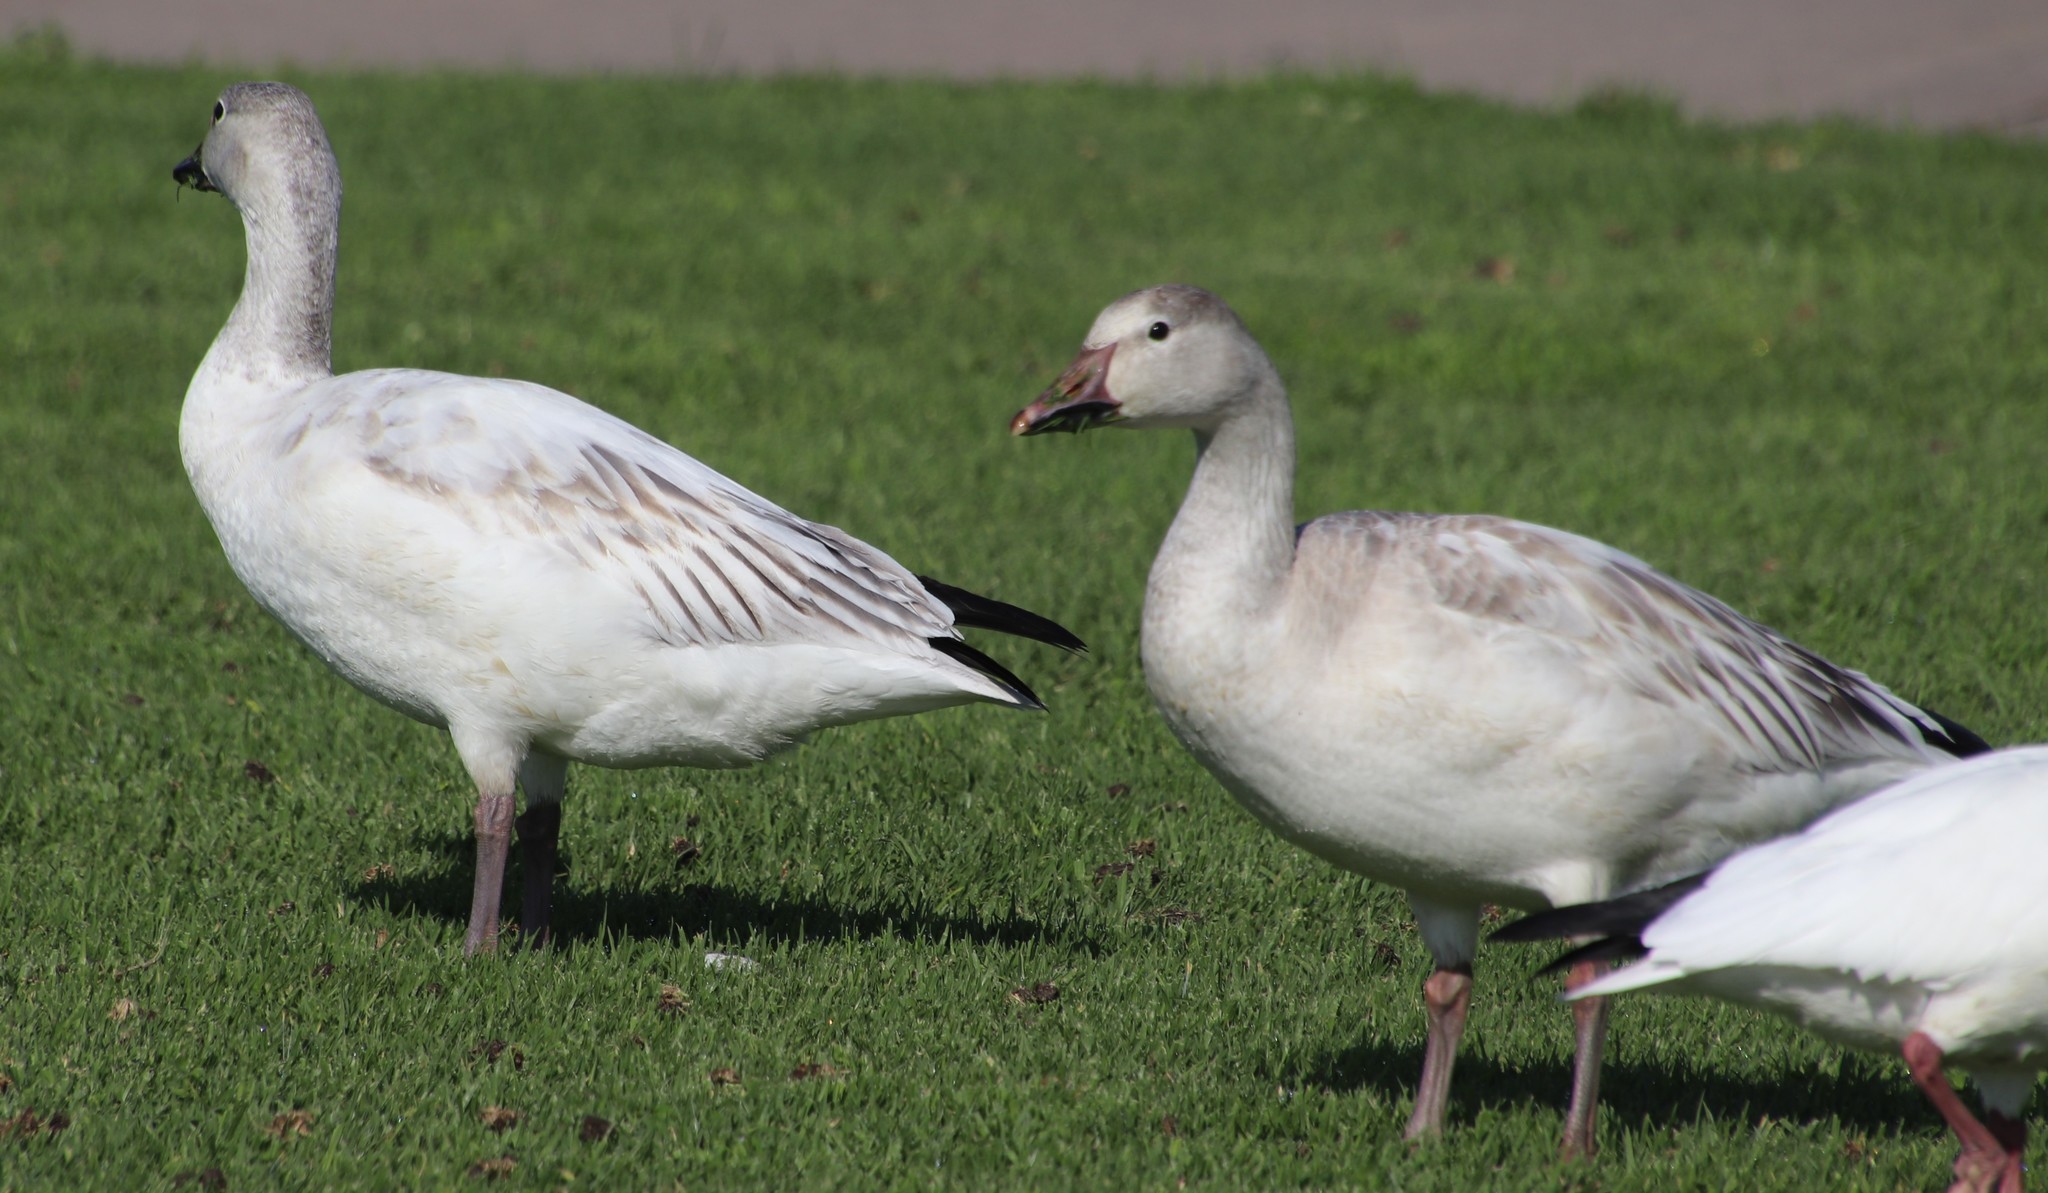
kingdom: Animalia
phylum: Chordata
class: Aves
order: Anseriformes
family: Anatidae
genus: Anser
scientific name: Anser caerulescens
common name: Snow goose
